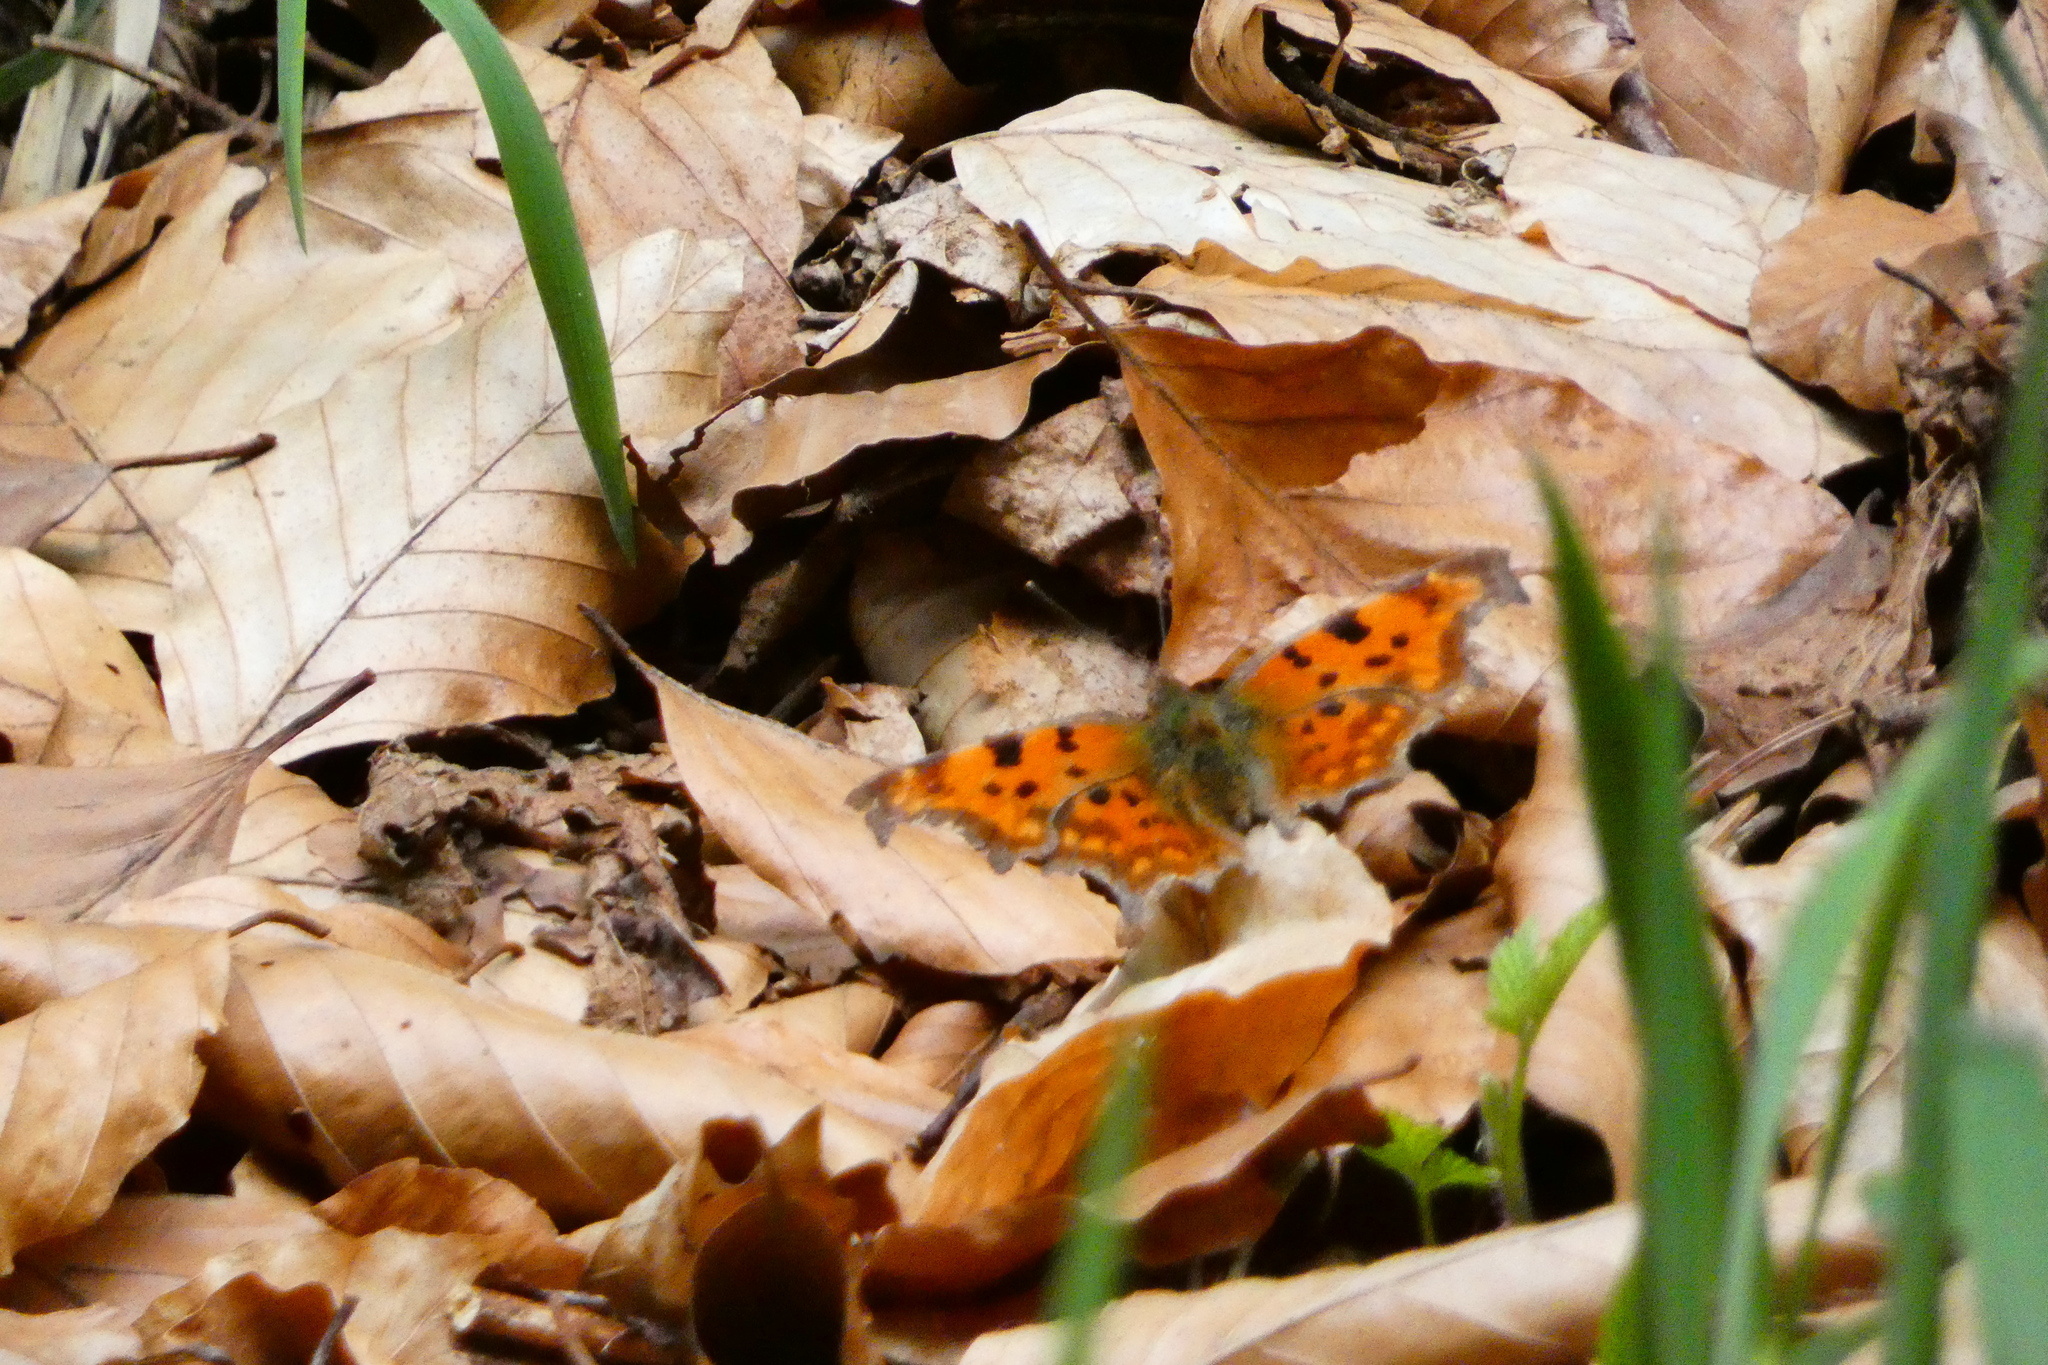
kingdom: Animalia
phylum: Arthropoda
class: Insecta
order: Lepidoptera
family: Nymphalidae
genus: Polygonia
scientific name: Polygonia c-album
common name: Comma
